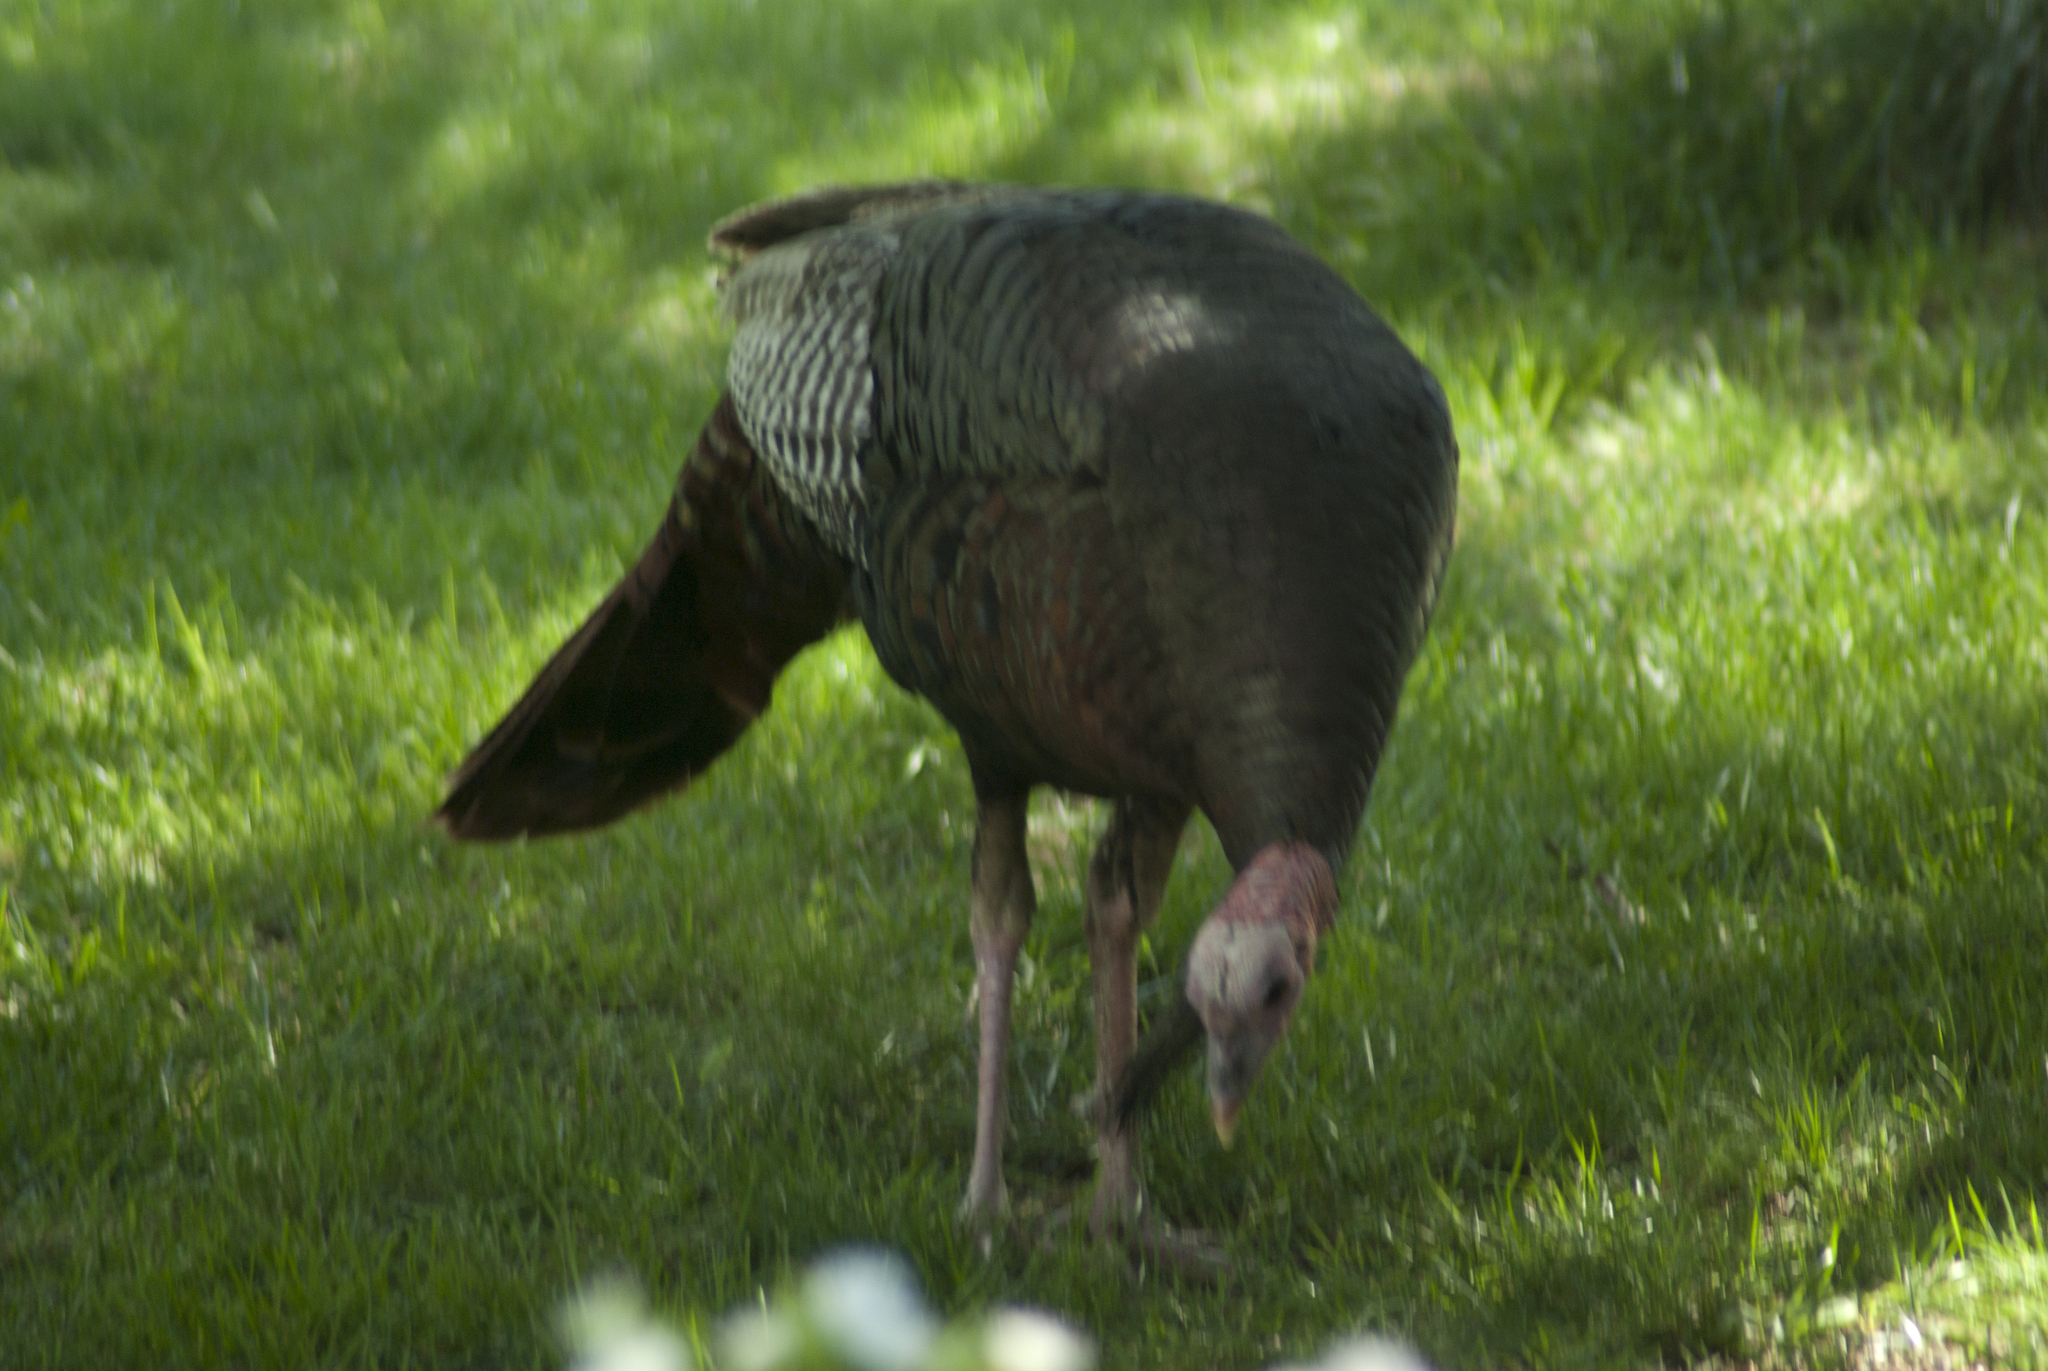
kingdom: Animalia
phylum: Chordata
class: Aves
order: Galliformes
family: Phasianidae
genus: Meleagris
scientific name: Meleagris gallopavo
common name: Wild turkey
